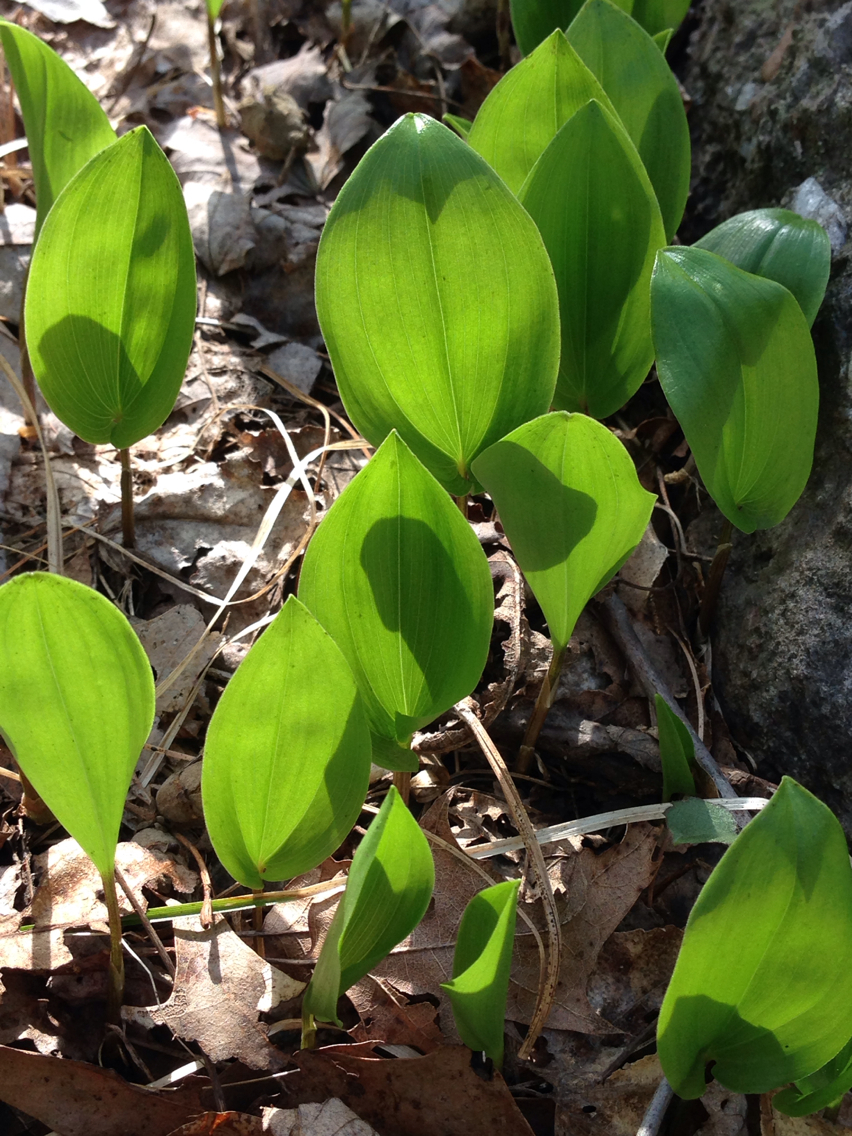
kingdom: Plantae
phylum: Tracheophyta
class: Liliopsida
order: Asparagales
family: Asparagaceae
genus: Maianthemum
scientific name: Maianthemum canadense
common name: False lily-of-the-valley
